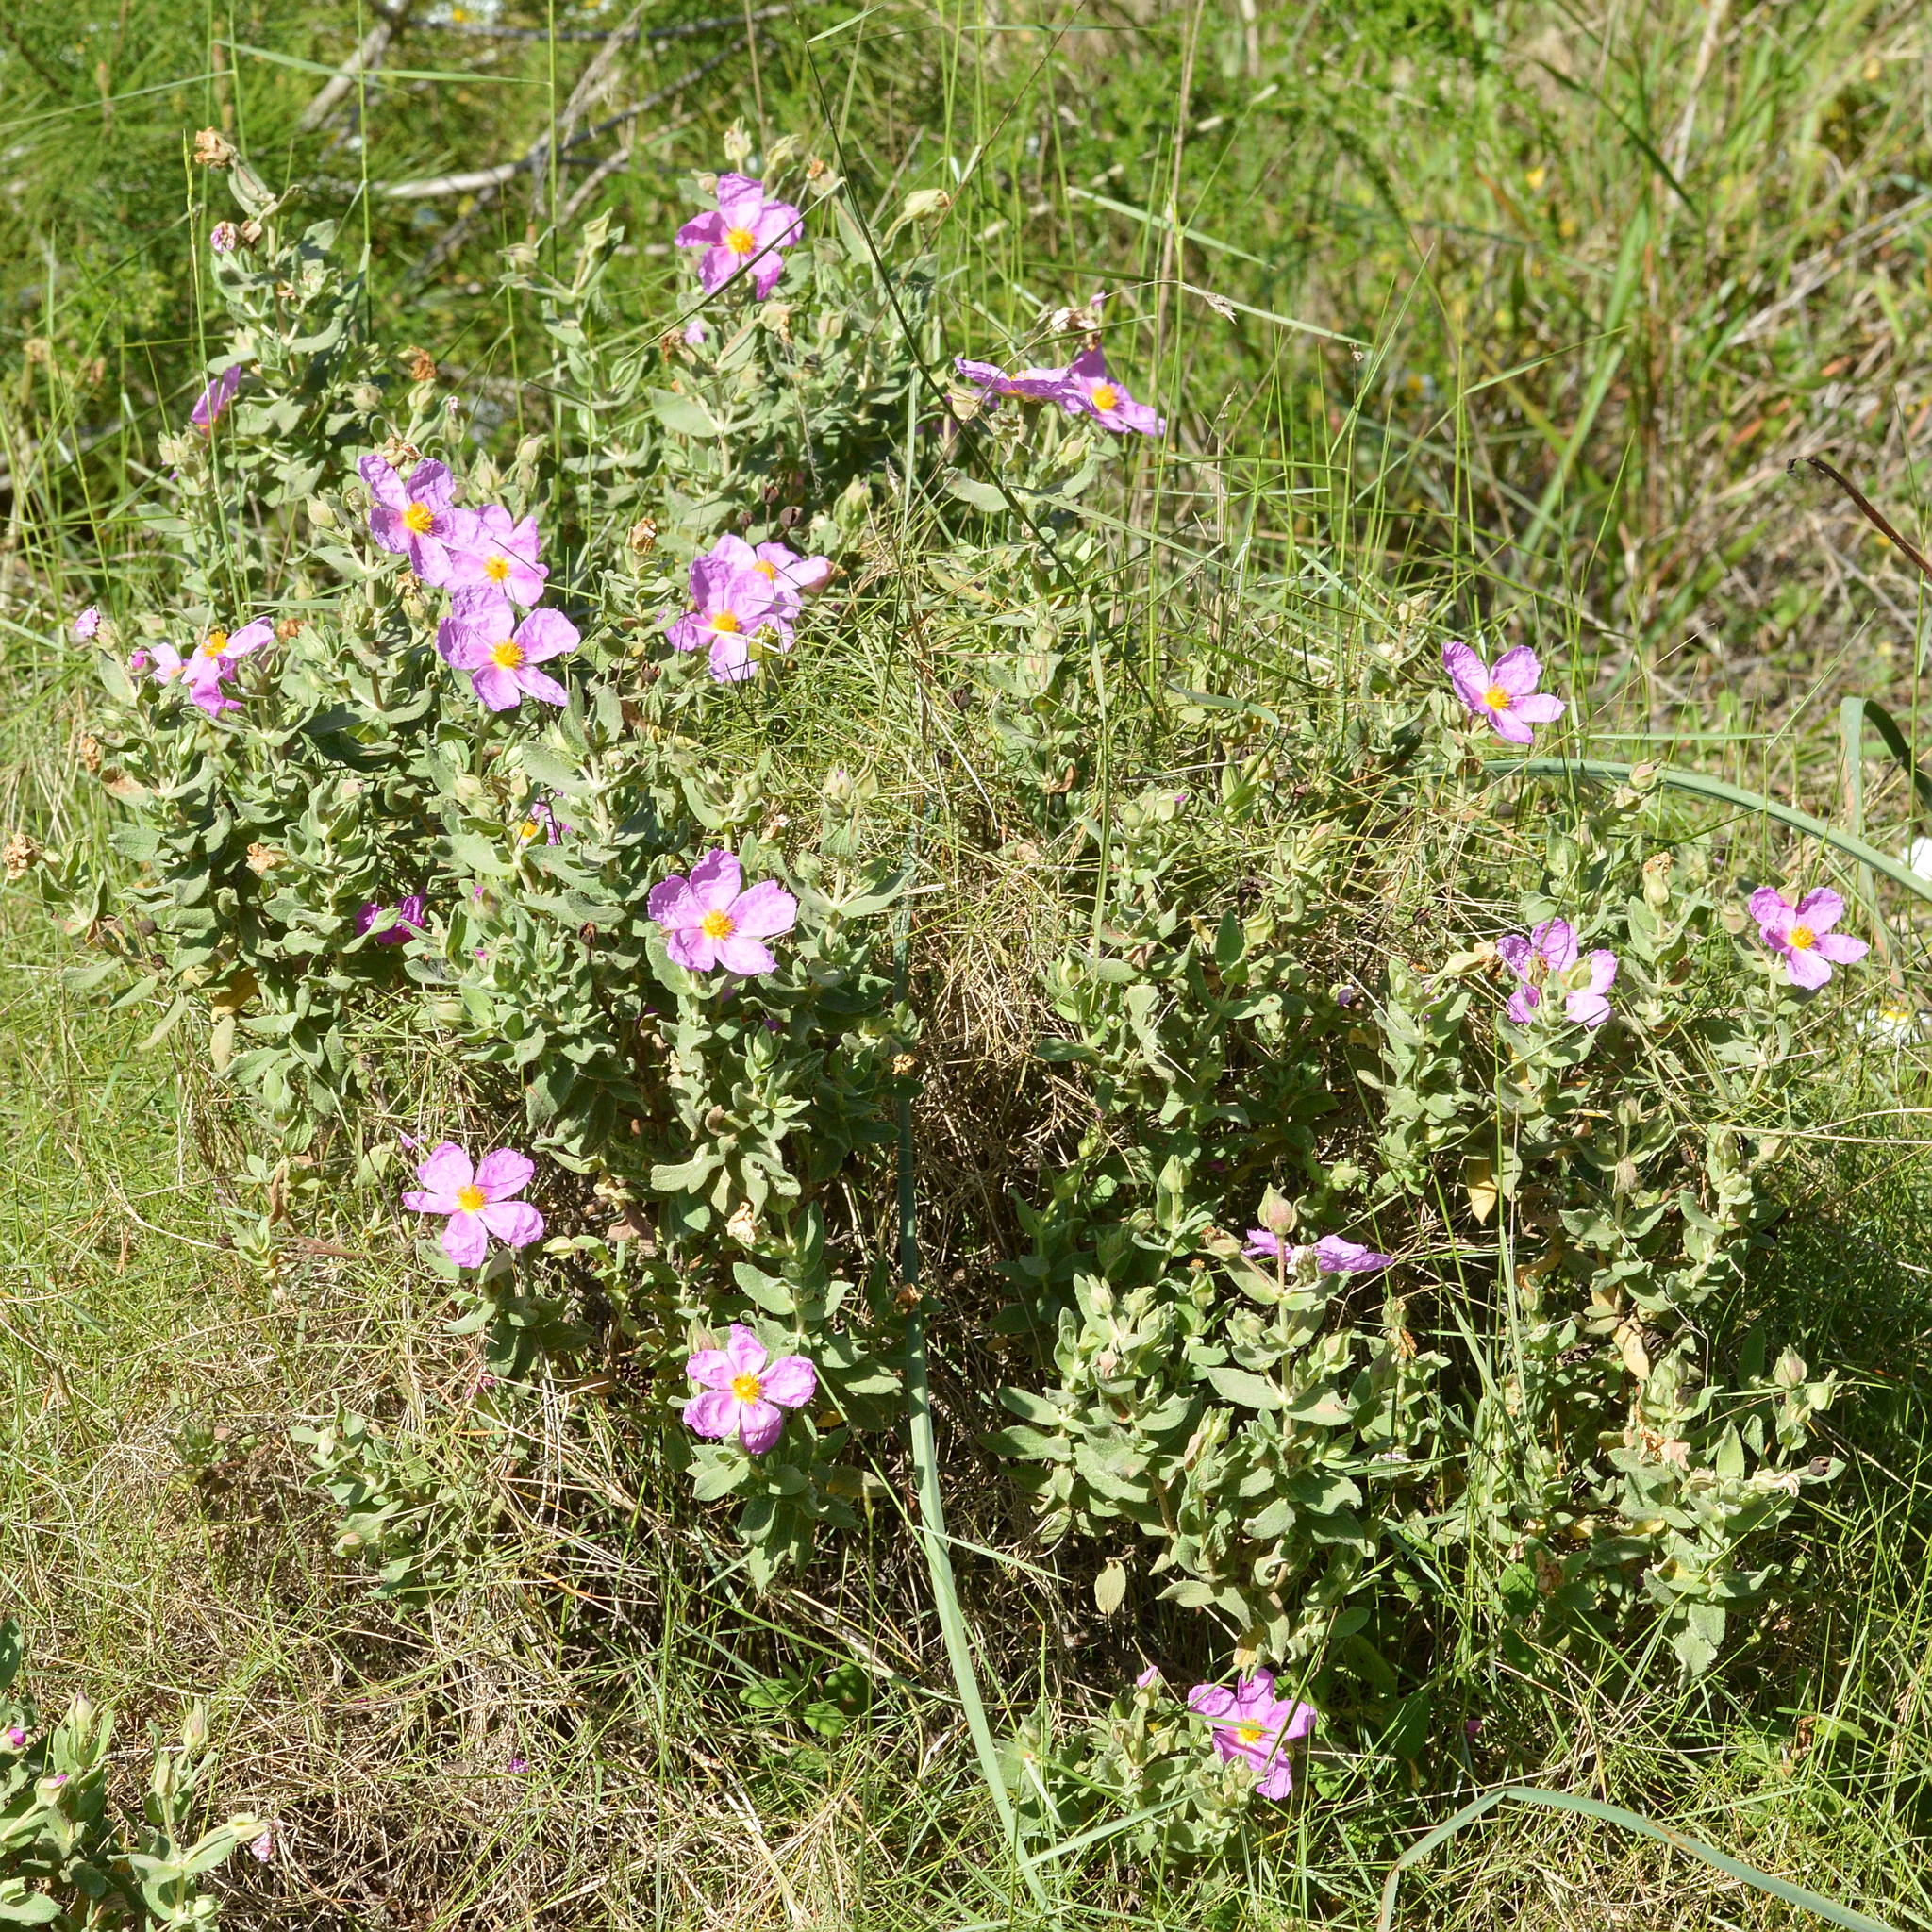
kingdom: Plantae
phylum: Tracheophyta
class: Magnoliopsida
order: Malvales
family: Cistaceae
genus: Cistus
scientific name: Cistus albidus
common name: White-leaf rock-rose
